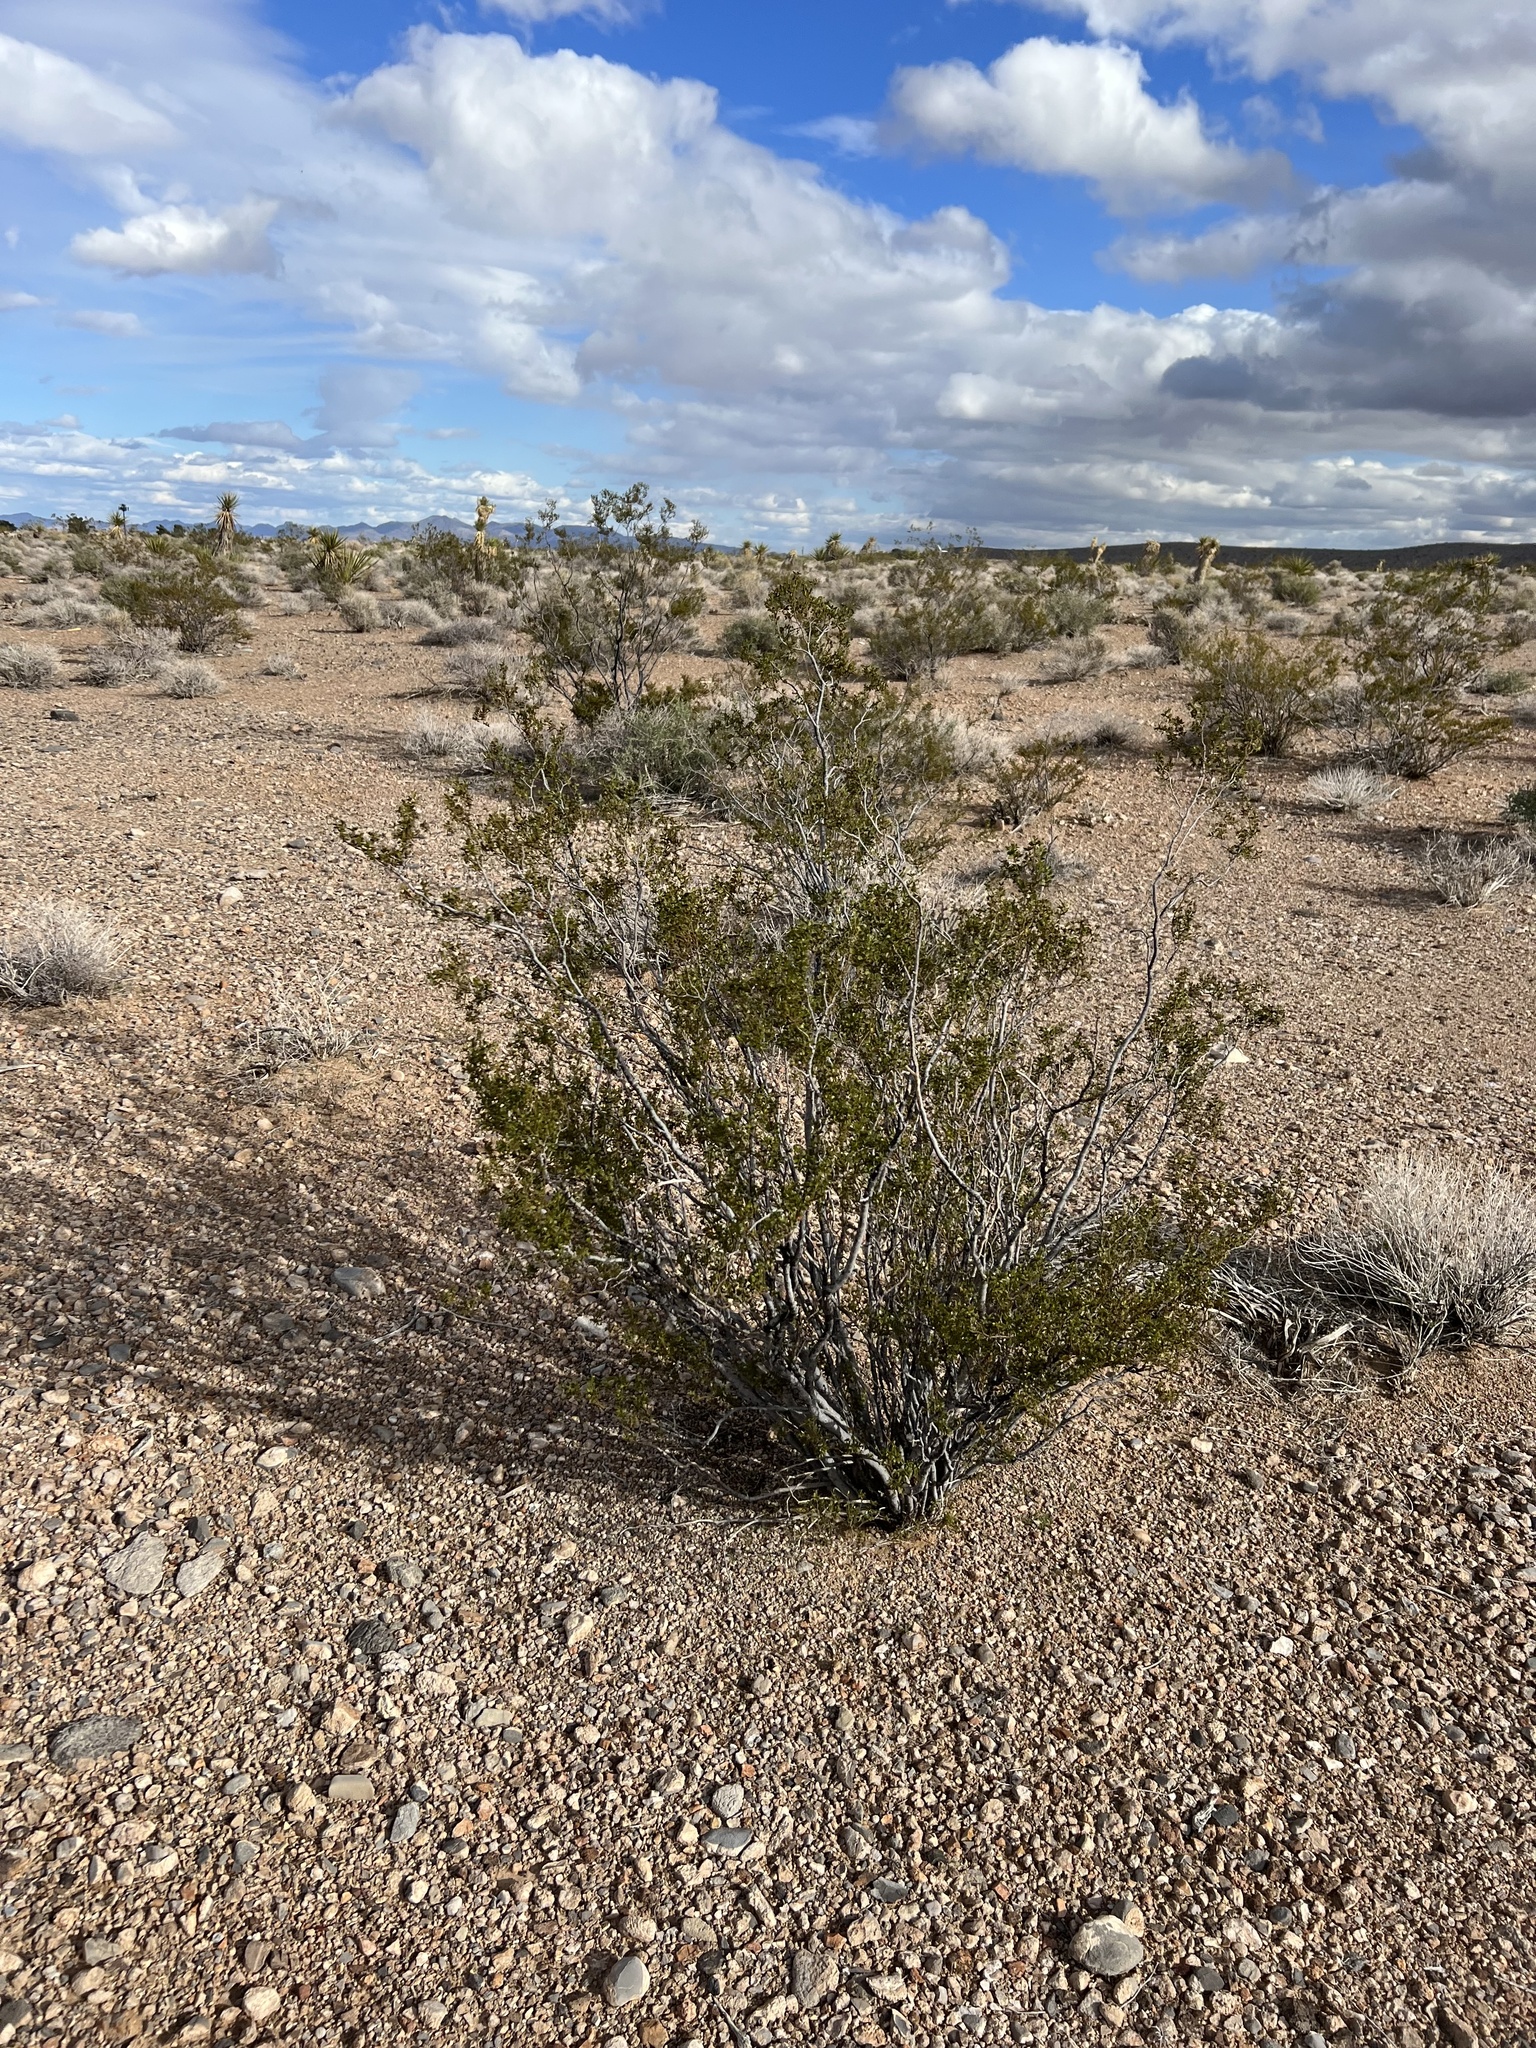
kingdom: Plantae
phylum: Tracheophyta
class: Magnoliopsida
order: Zygophyllales
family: Zygophyllaceae
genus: Larrea
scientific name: Larrea tridentata
